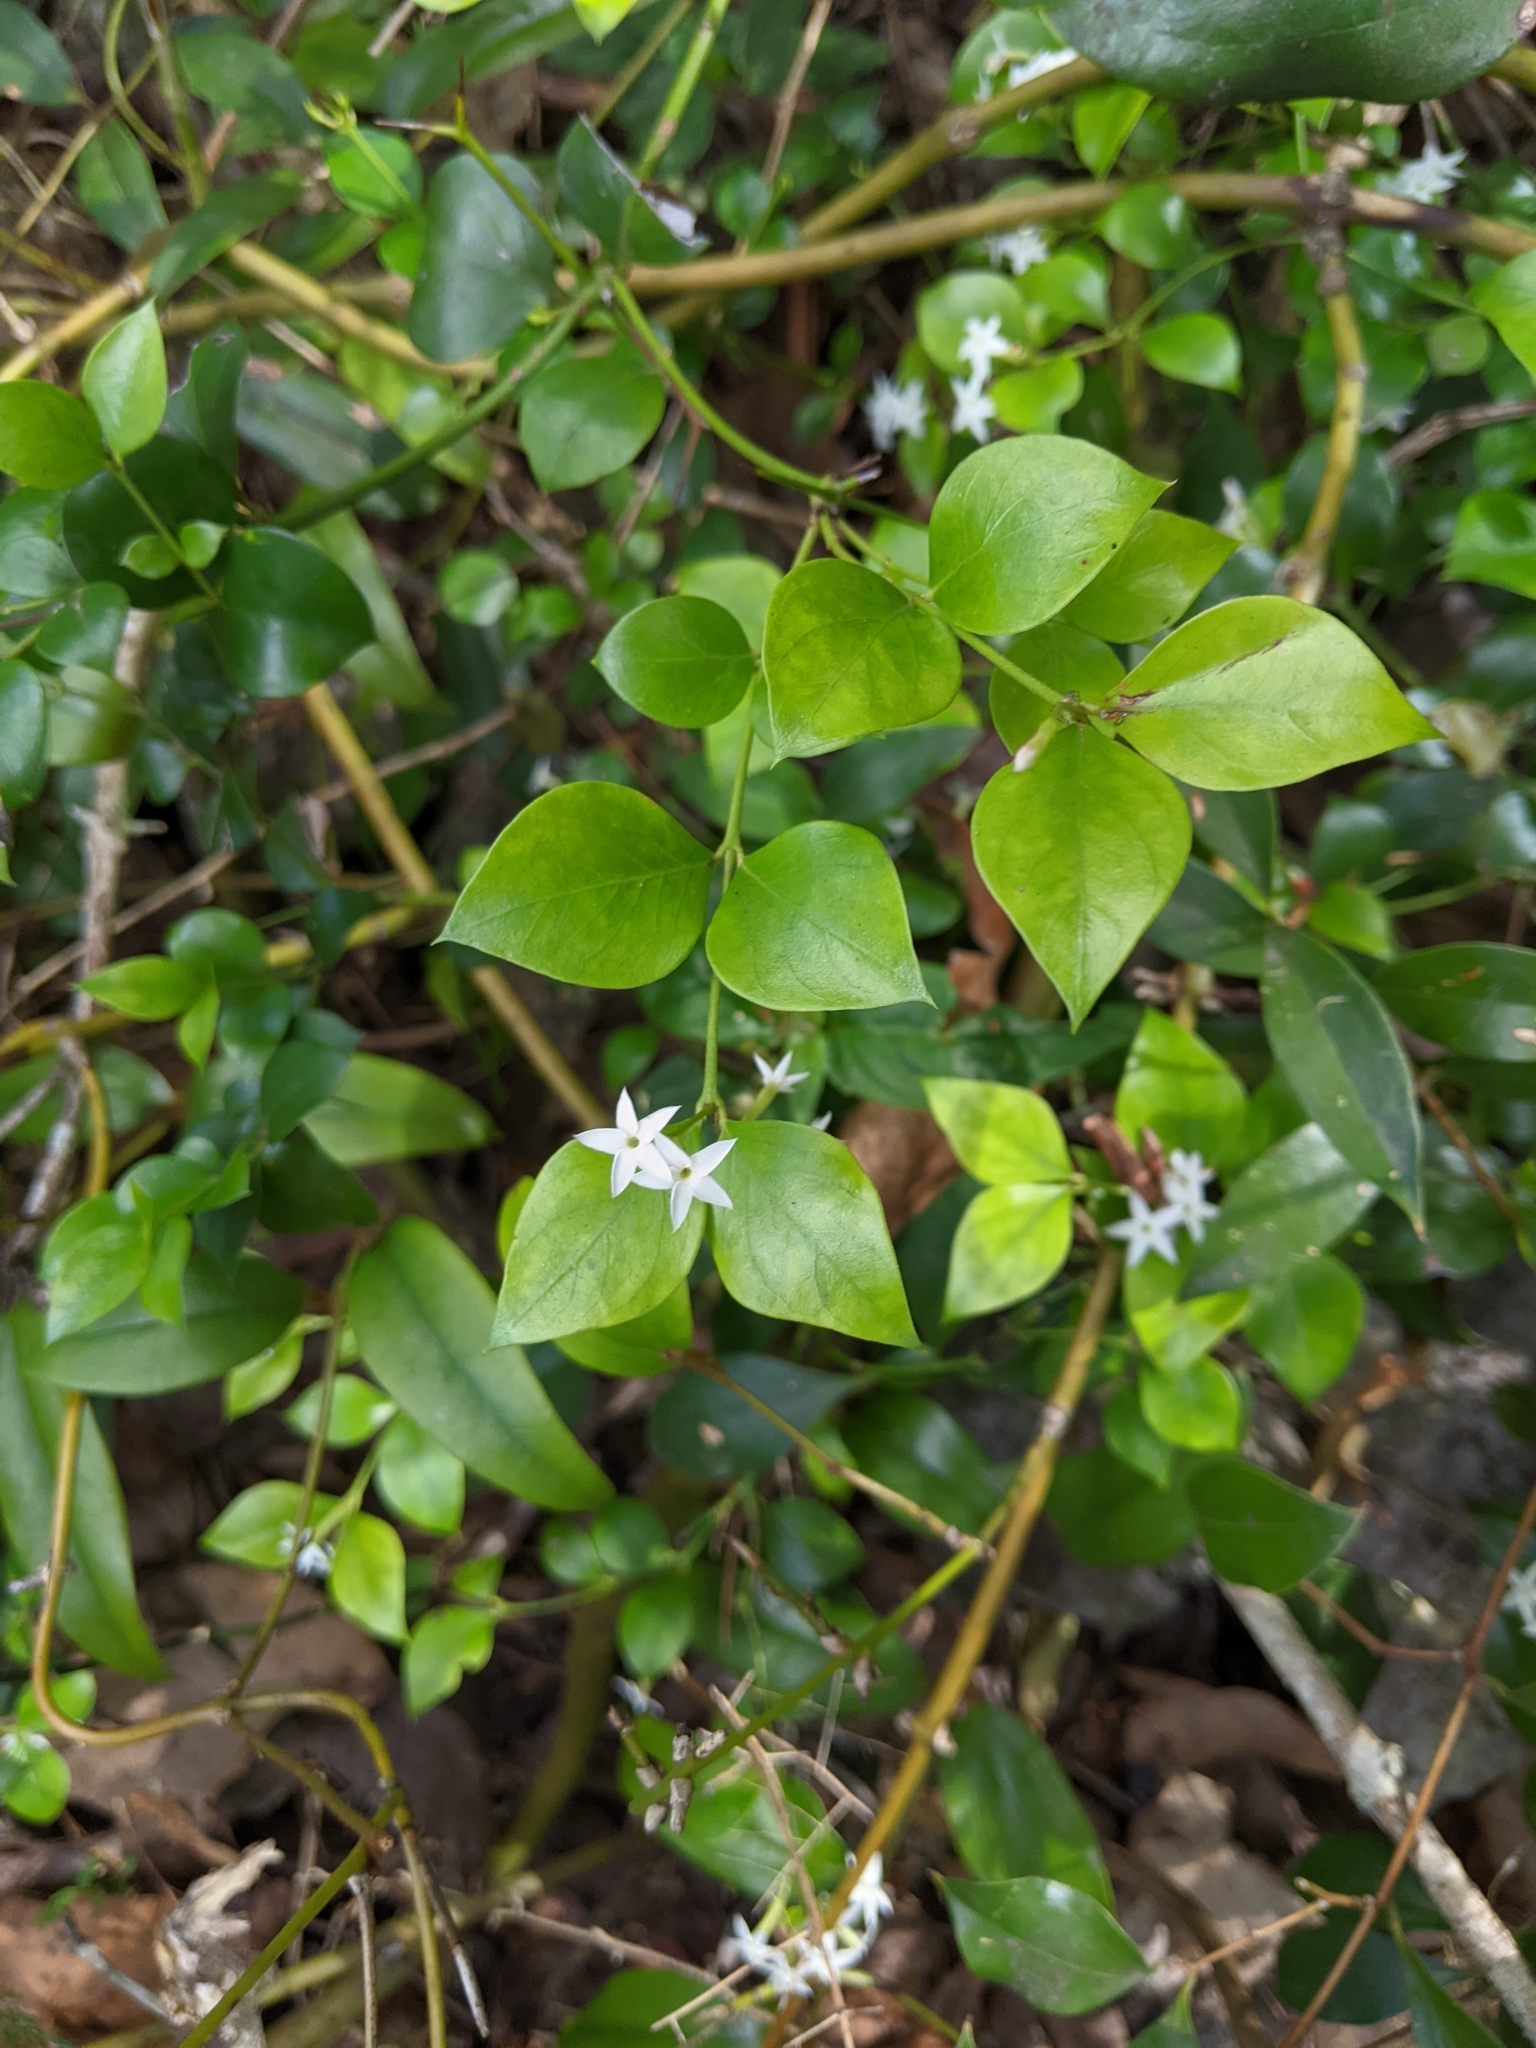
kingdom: Plantae
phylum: Tracheophyta
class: Magnoliopsida
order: Gentianales
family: Apocynaceae
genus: Carissa
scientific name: Carissa ovata
